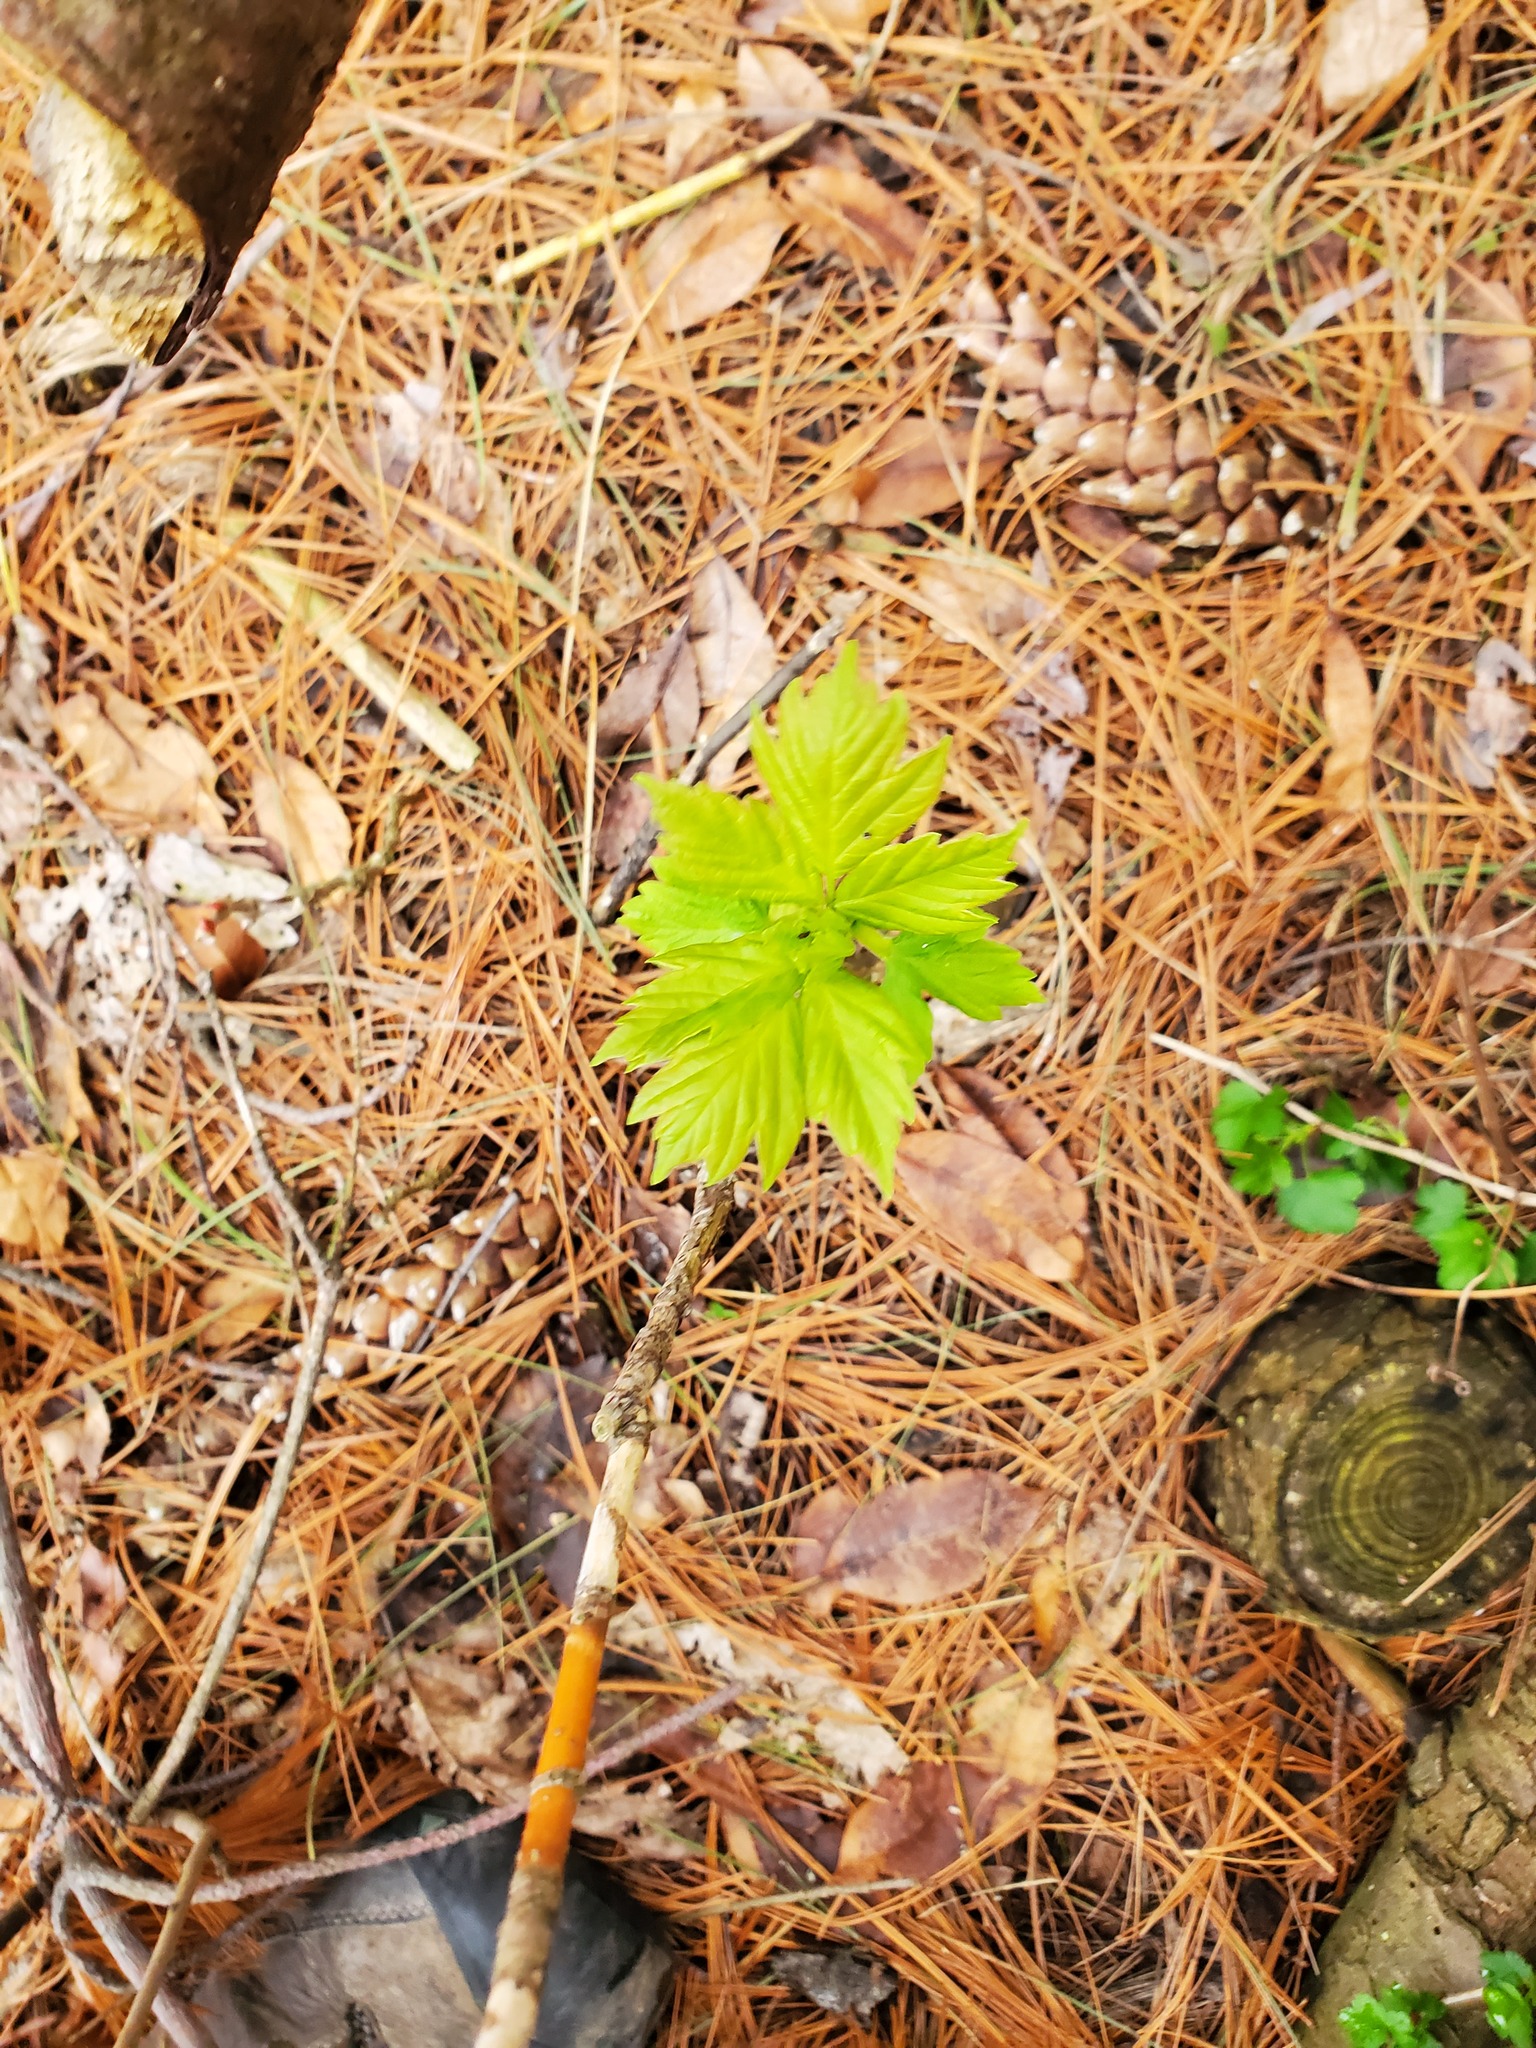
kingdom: Plantae
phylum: Tracheophyta
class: Magnoliopsida
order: Sapindales
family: Sapindaceae
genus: Acer
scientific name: Acer negundo
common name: Ashleaf maple
